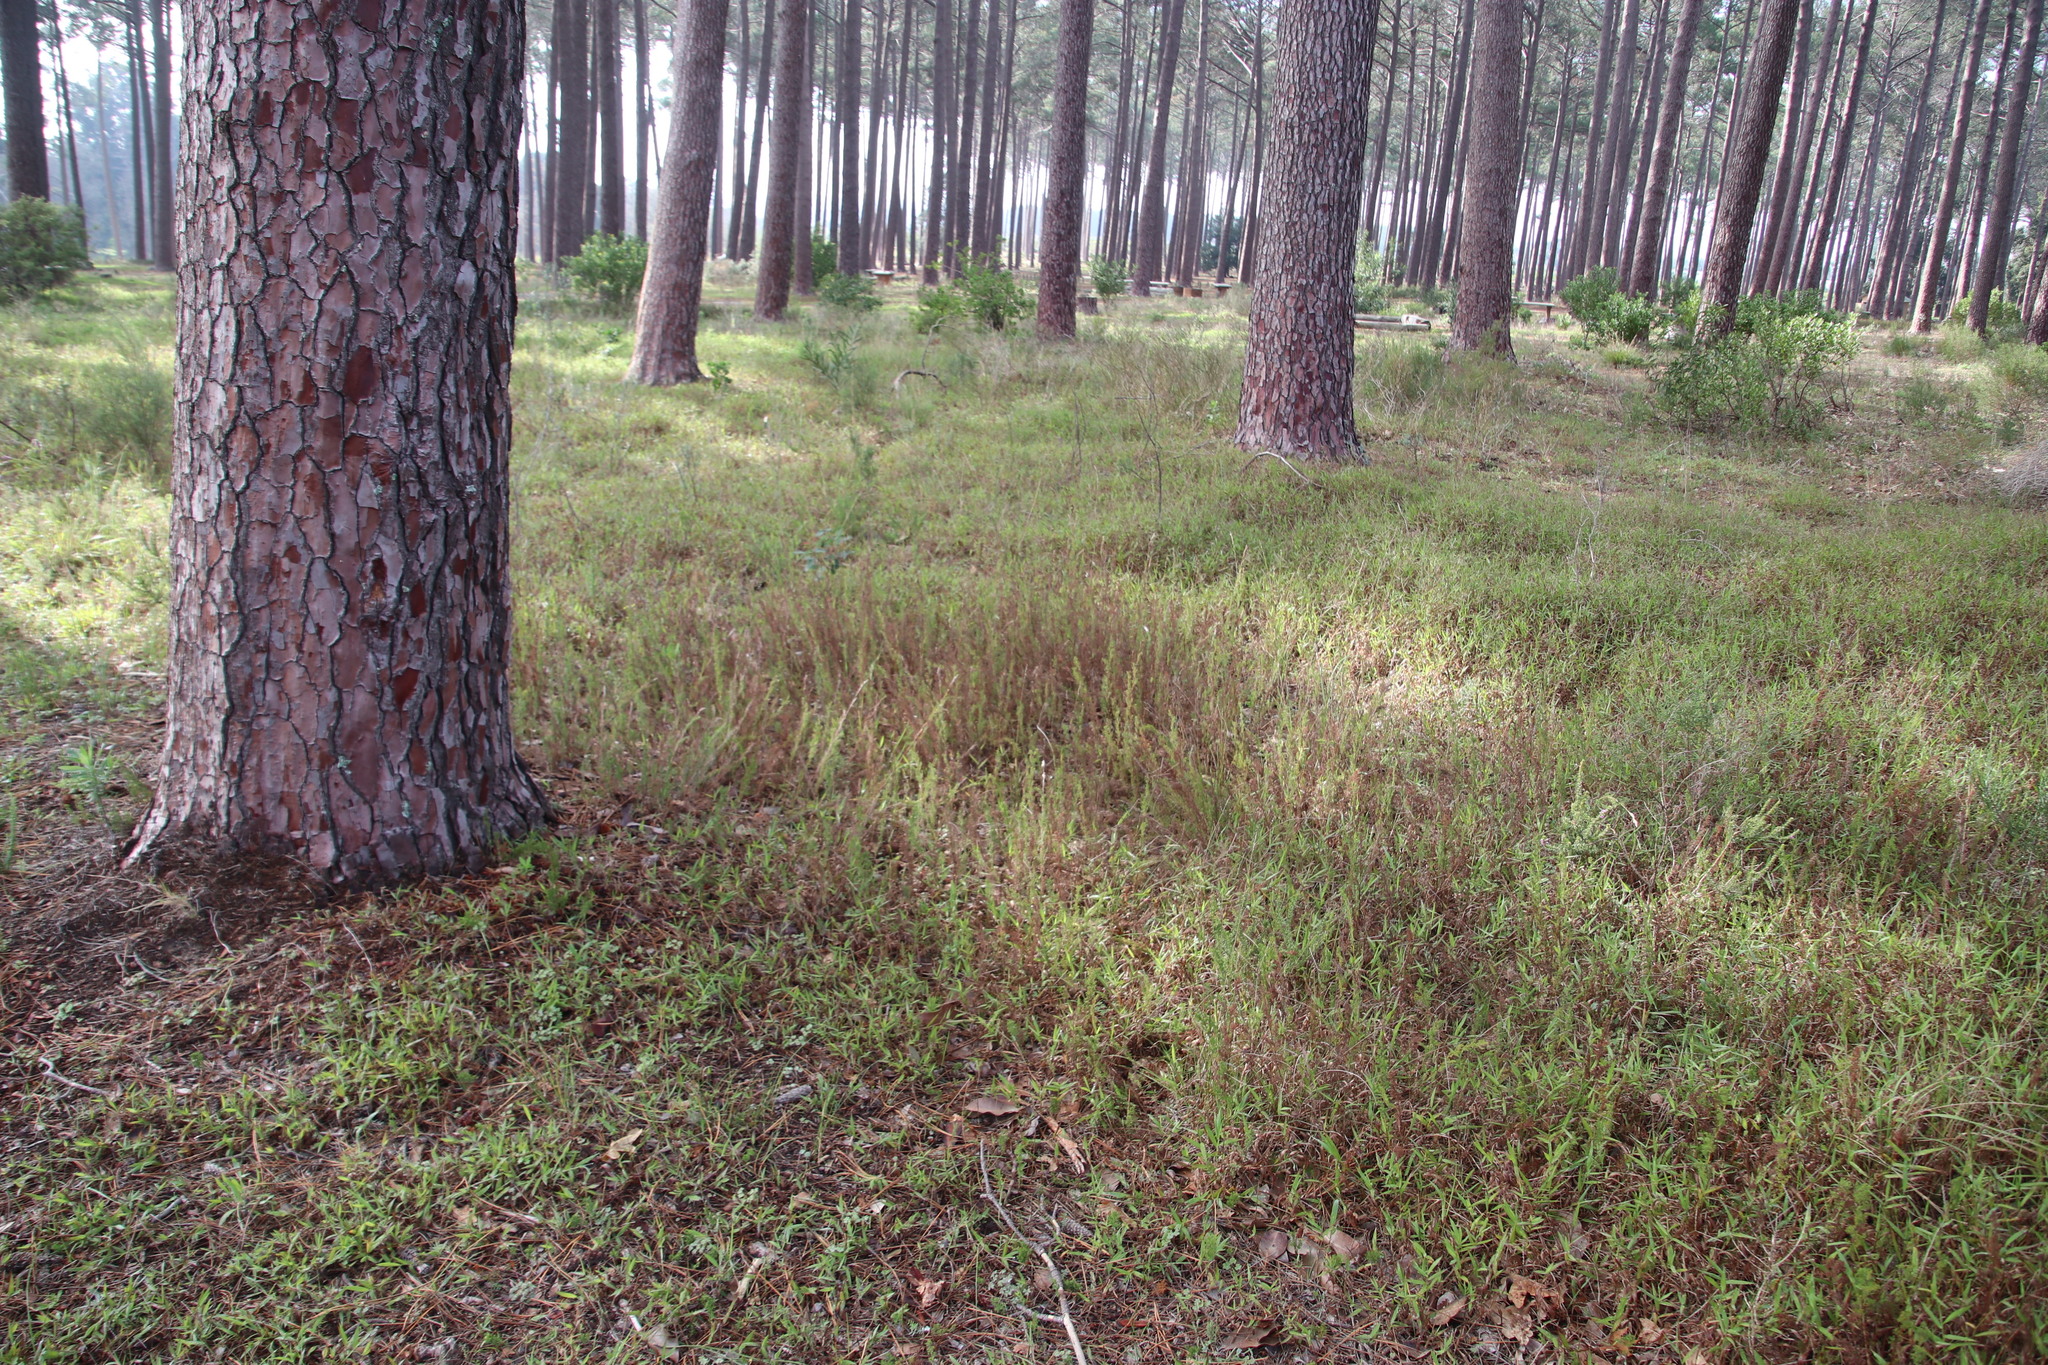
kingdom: Plantae
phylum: Tracheophyta
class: Liliopsida
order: Poales
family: Restionaceae
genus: Thamnochortus
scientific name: Thamnochortus fruticosus
